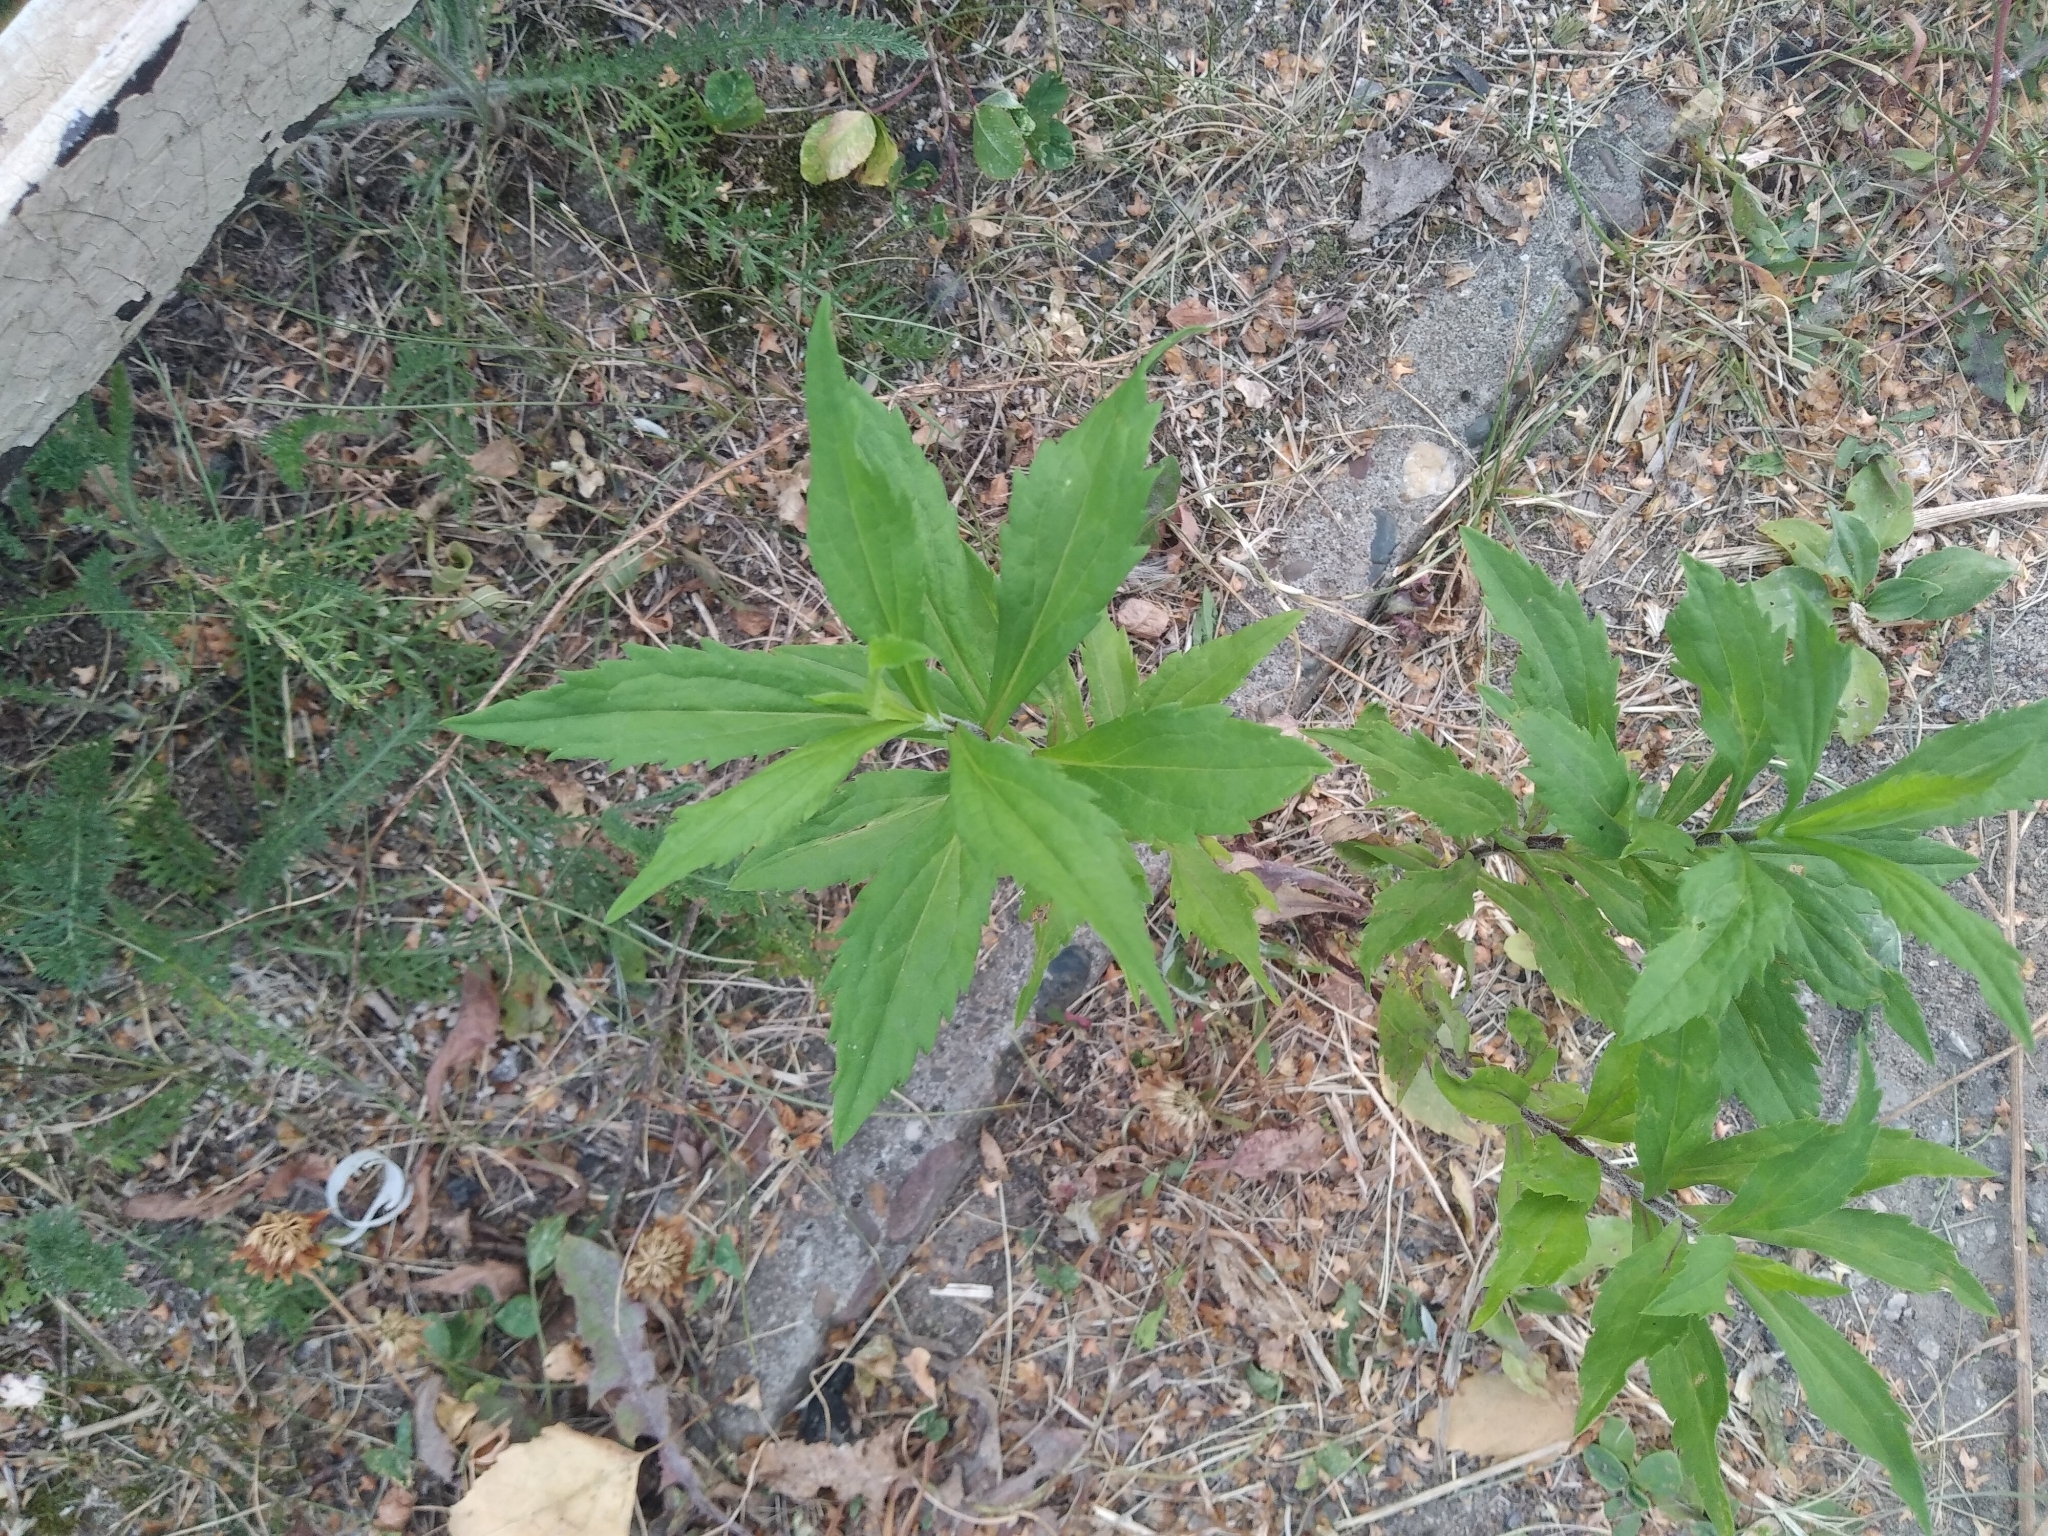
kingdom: Plantae
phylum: Tracheophyta
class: Magnoliopsida
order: Asterales
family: Asteraceae
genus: Solidago
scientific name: Solidago canadensis
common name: Canada goldenrod
